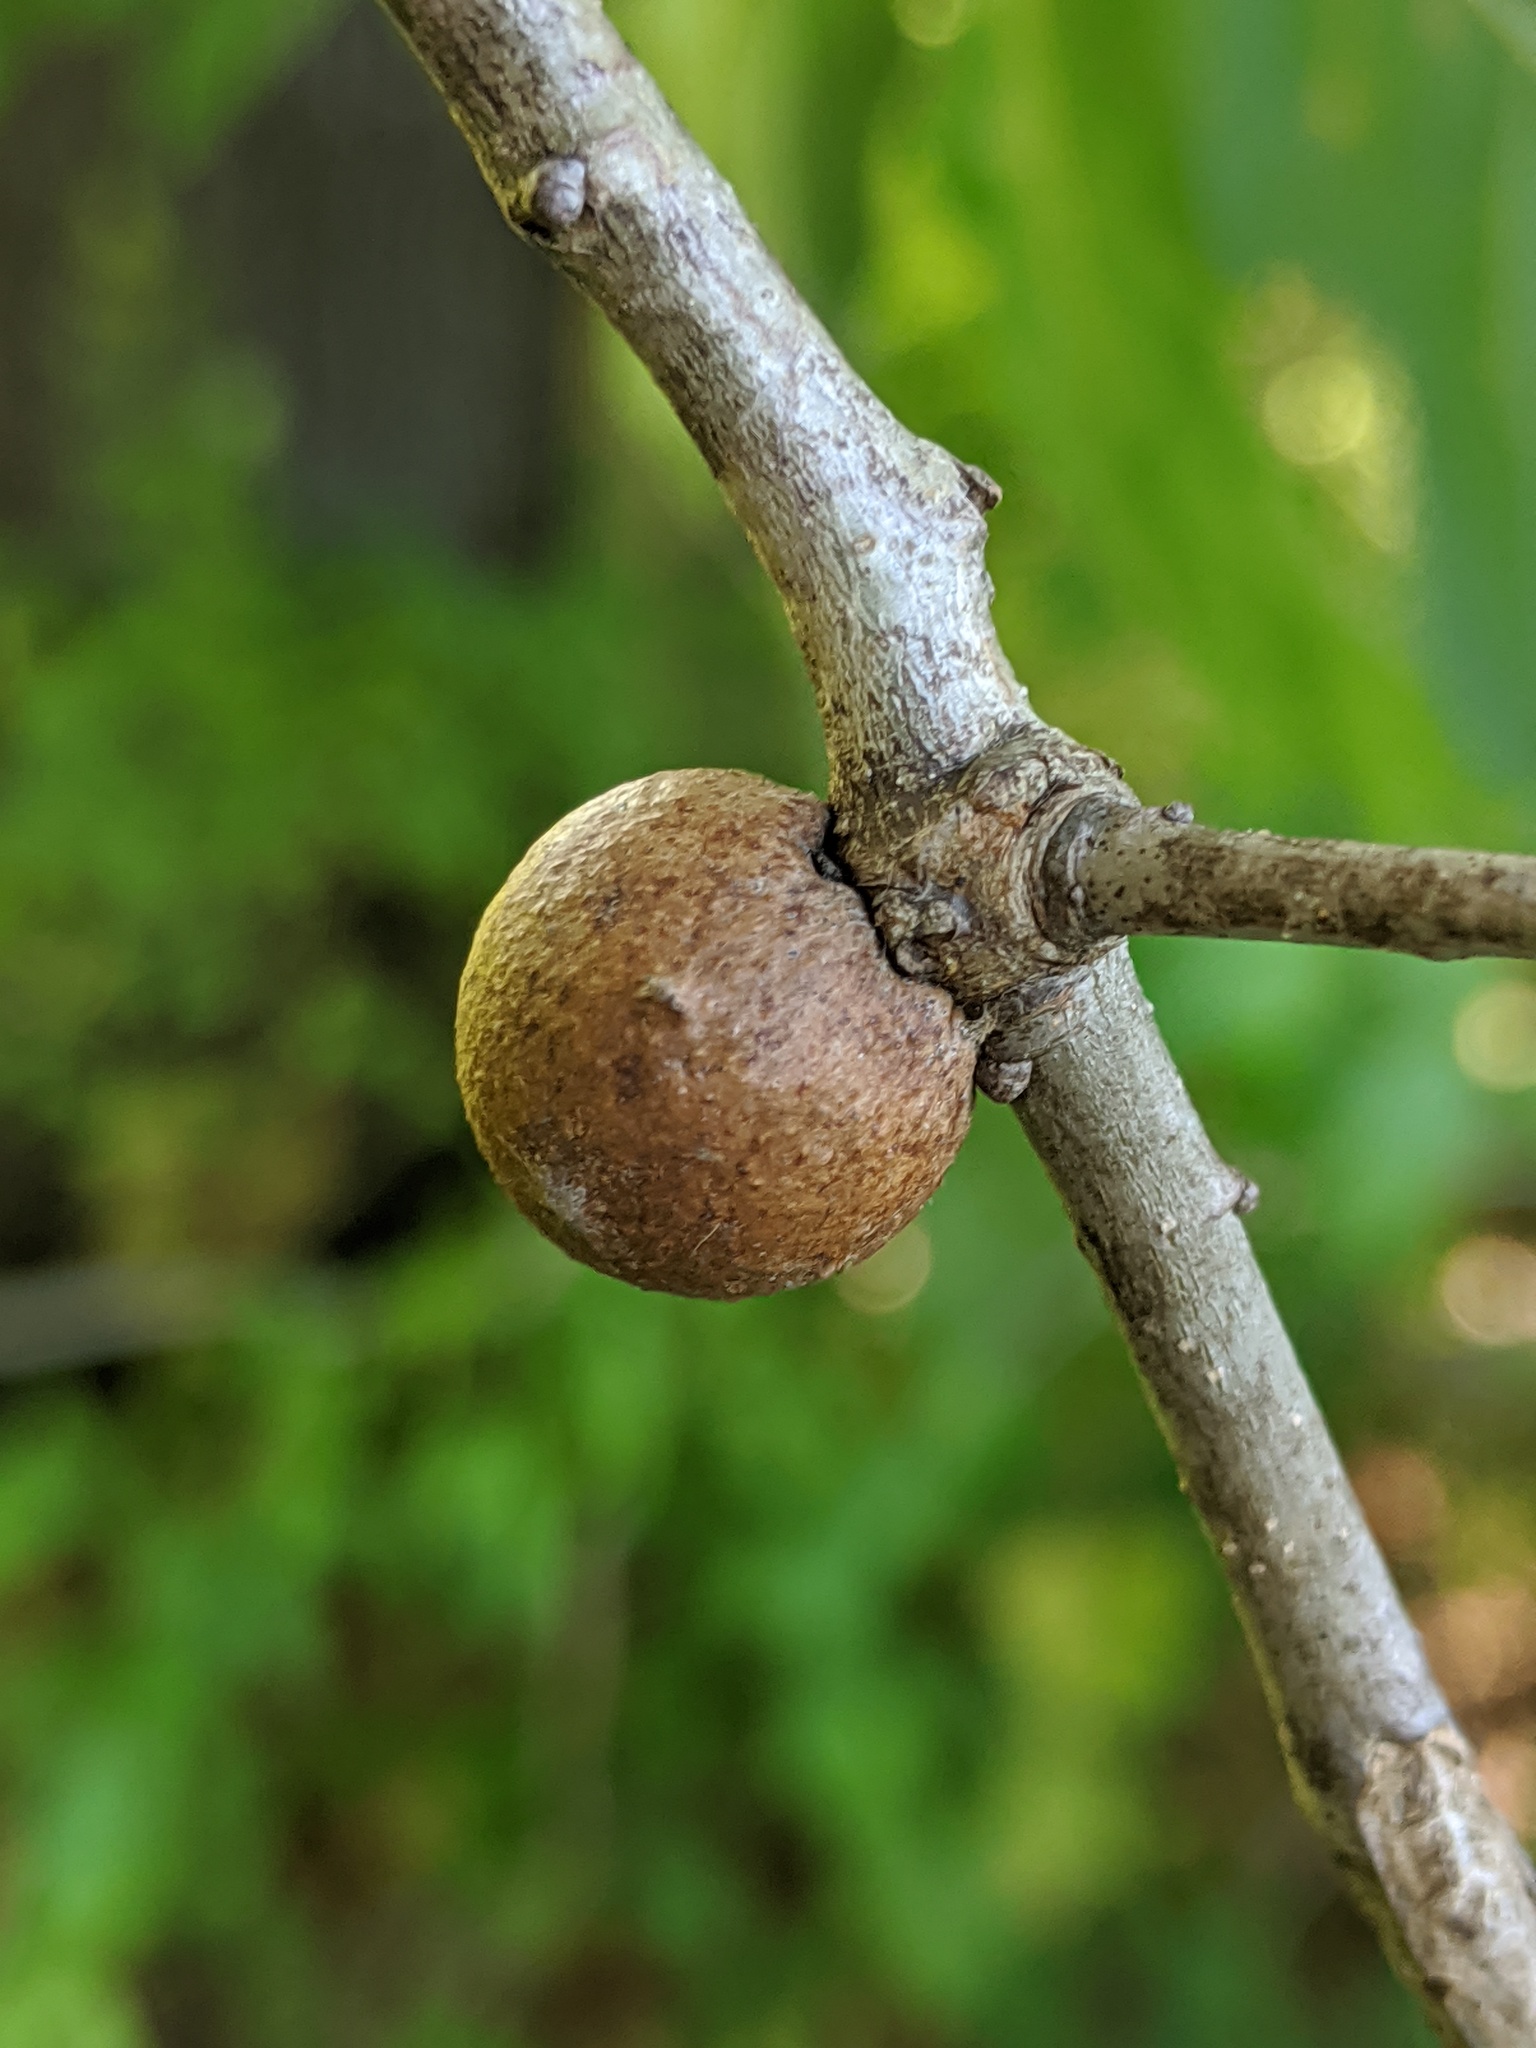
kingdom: Animalia
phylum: Arthropoda
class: Insecta
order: Hymenoptera
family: Cynipidae
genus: Disholcaspis
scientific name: Disholcaspis quercusglobulus
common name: Round bullet gall wasp
